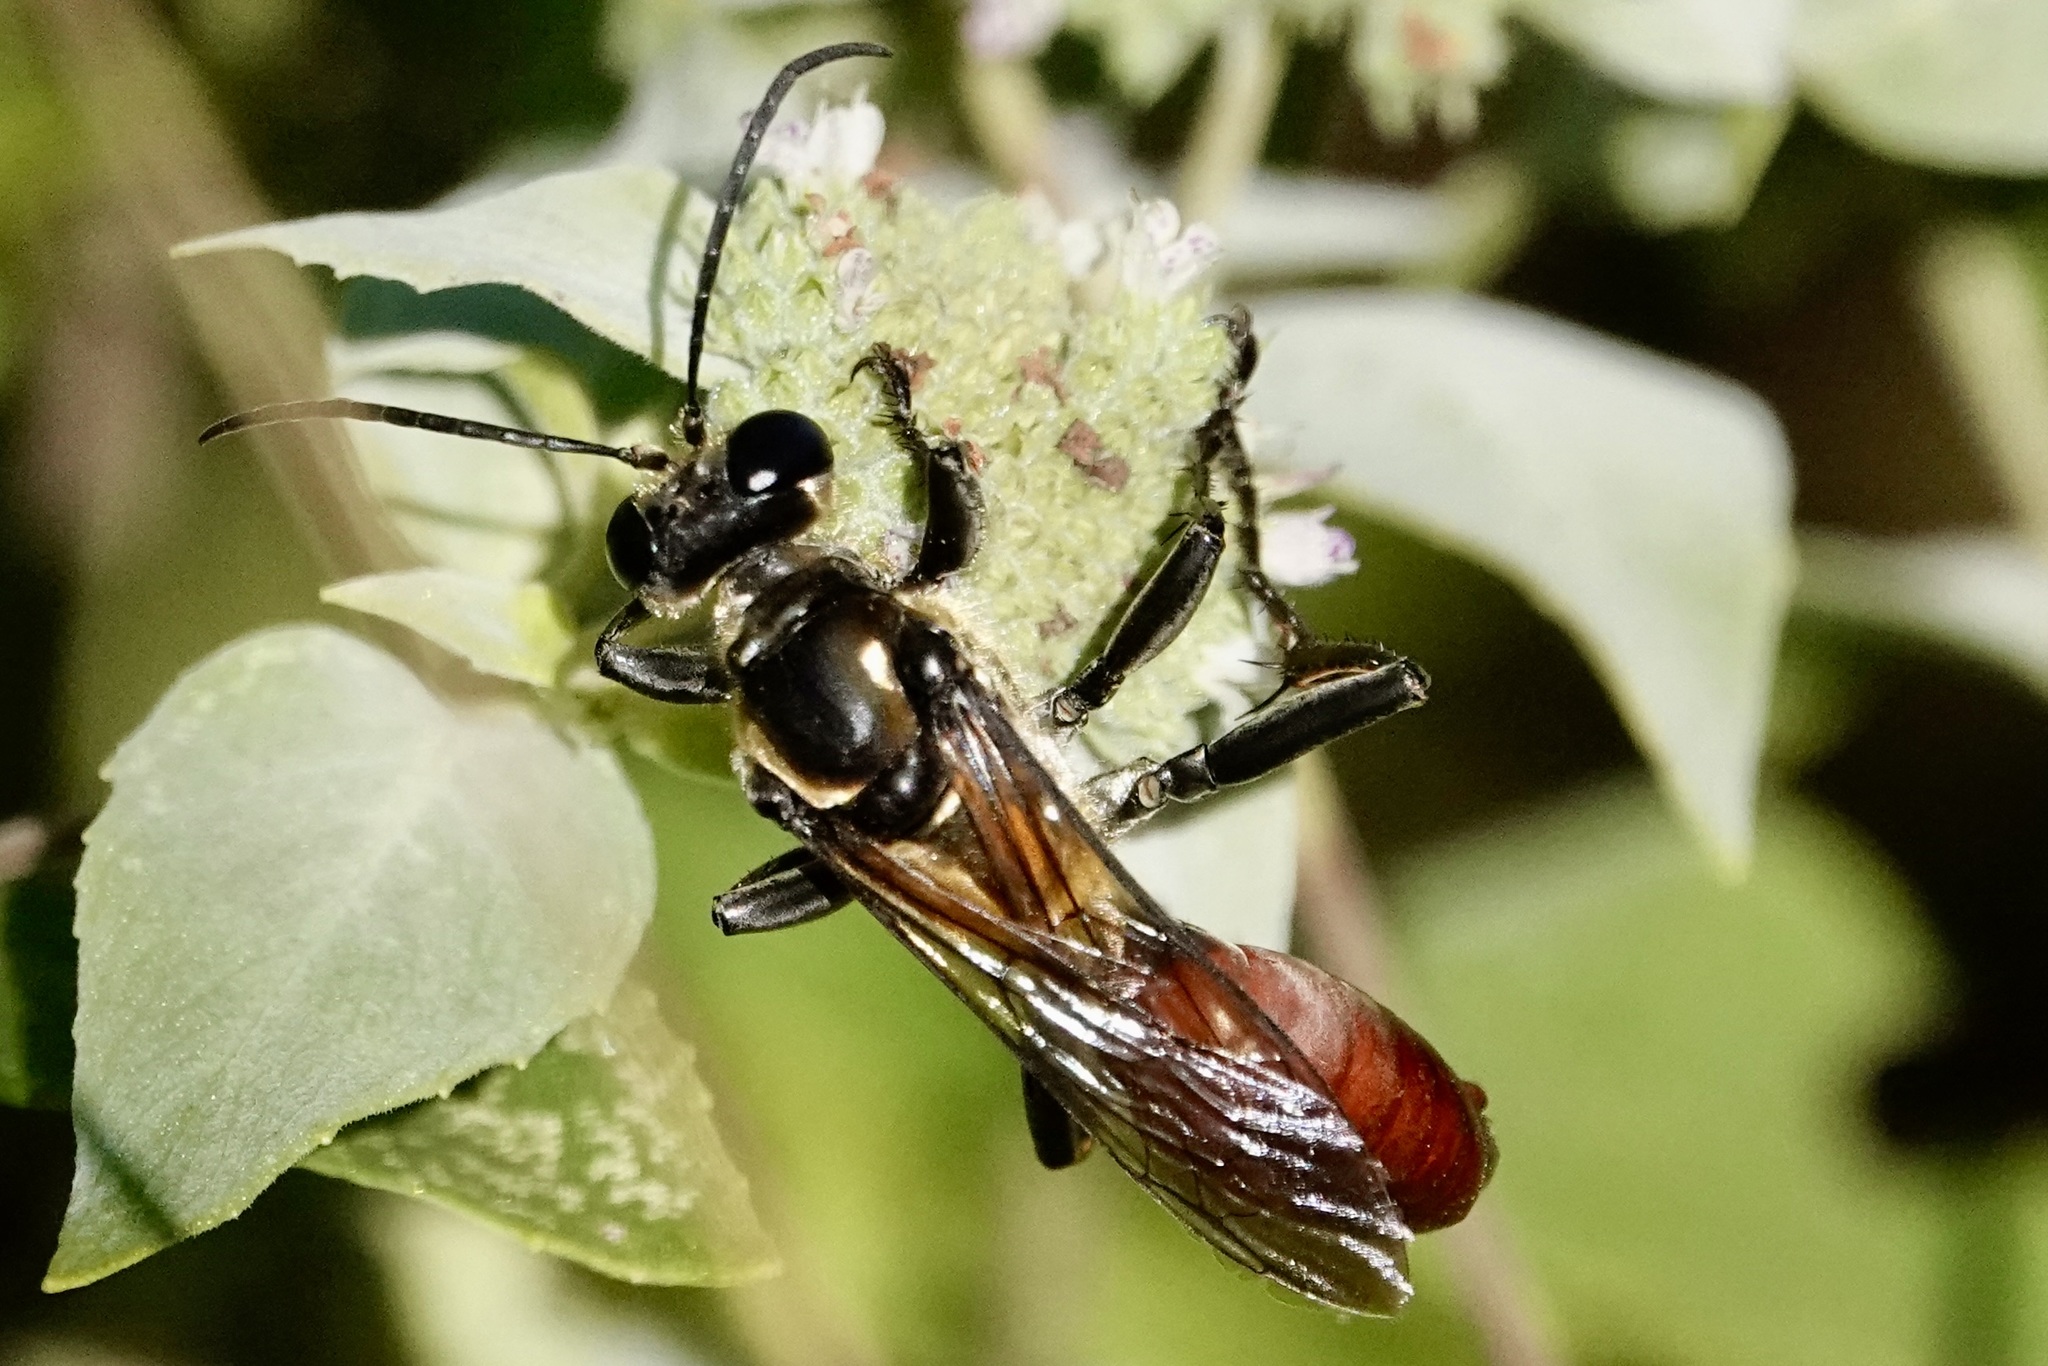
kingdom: Animalia
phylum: Arthropoda
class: Insecta
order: Hymenoptera
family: Sphecidae
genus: Sphex
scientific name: Sphex habenus
